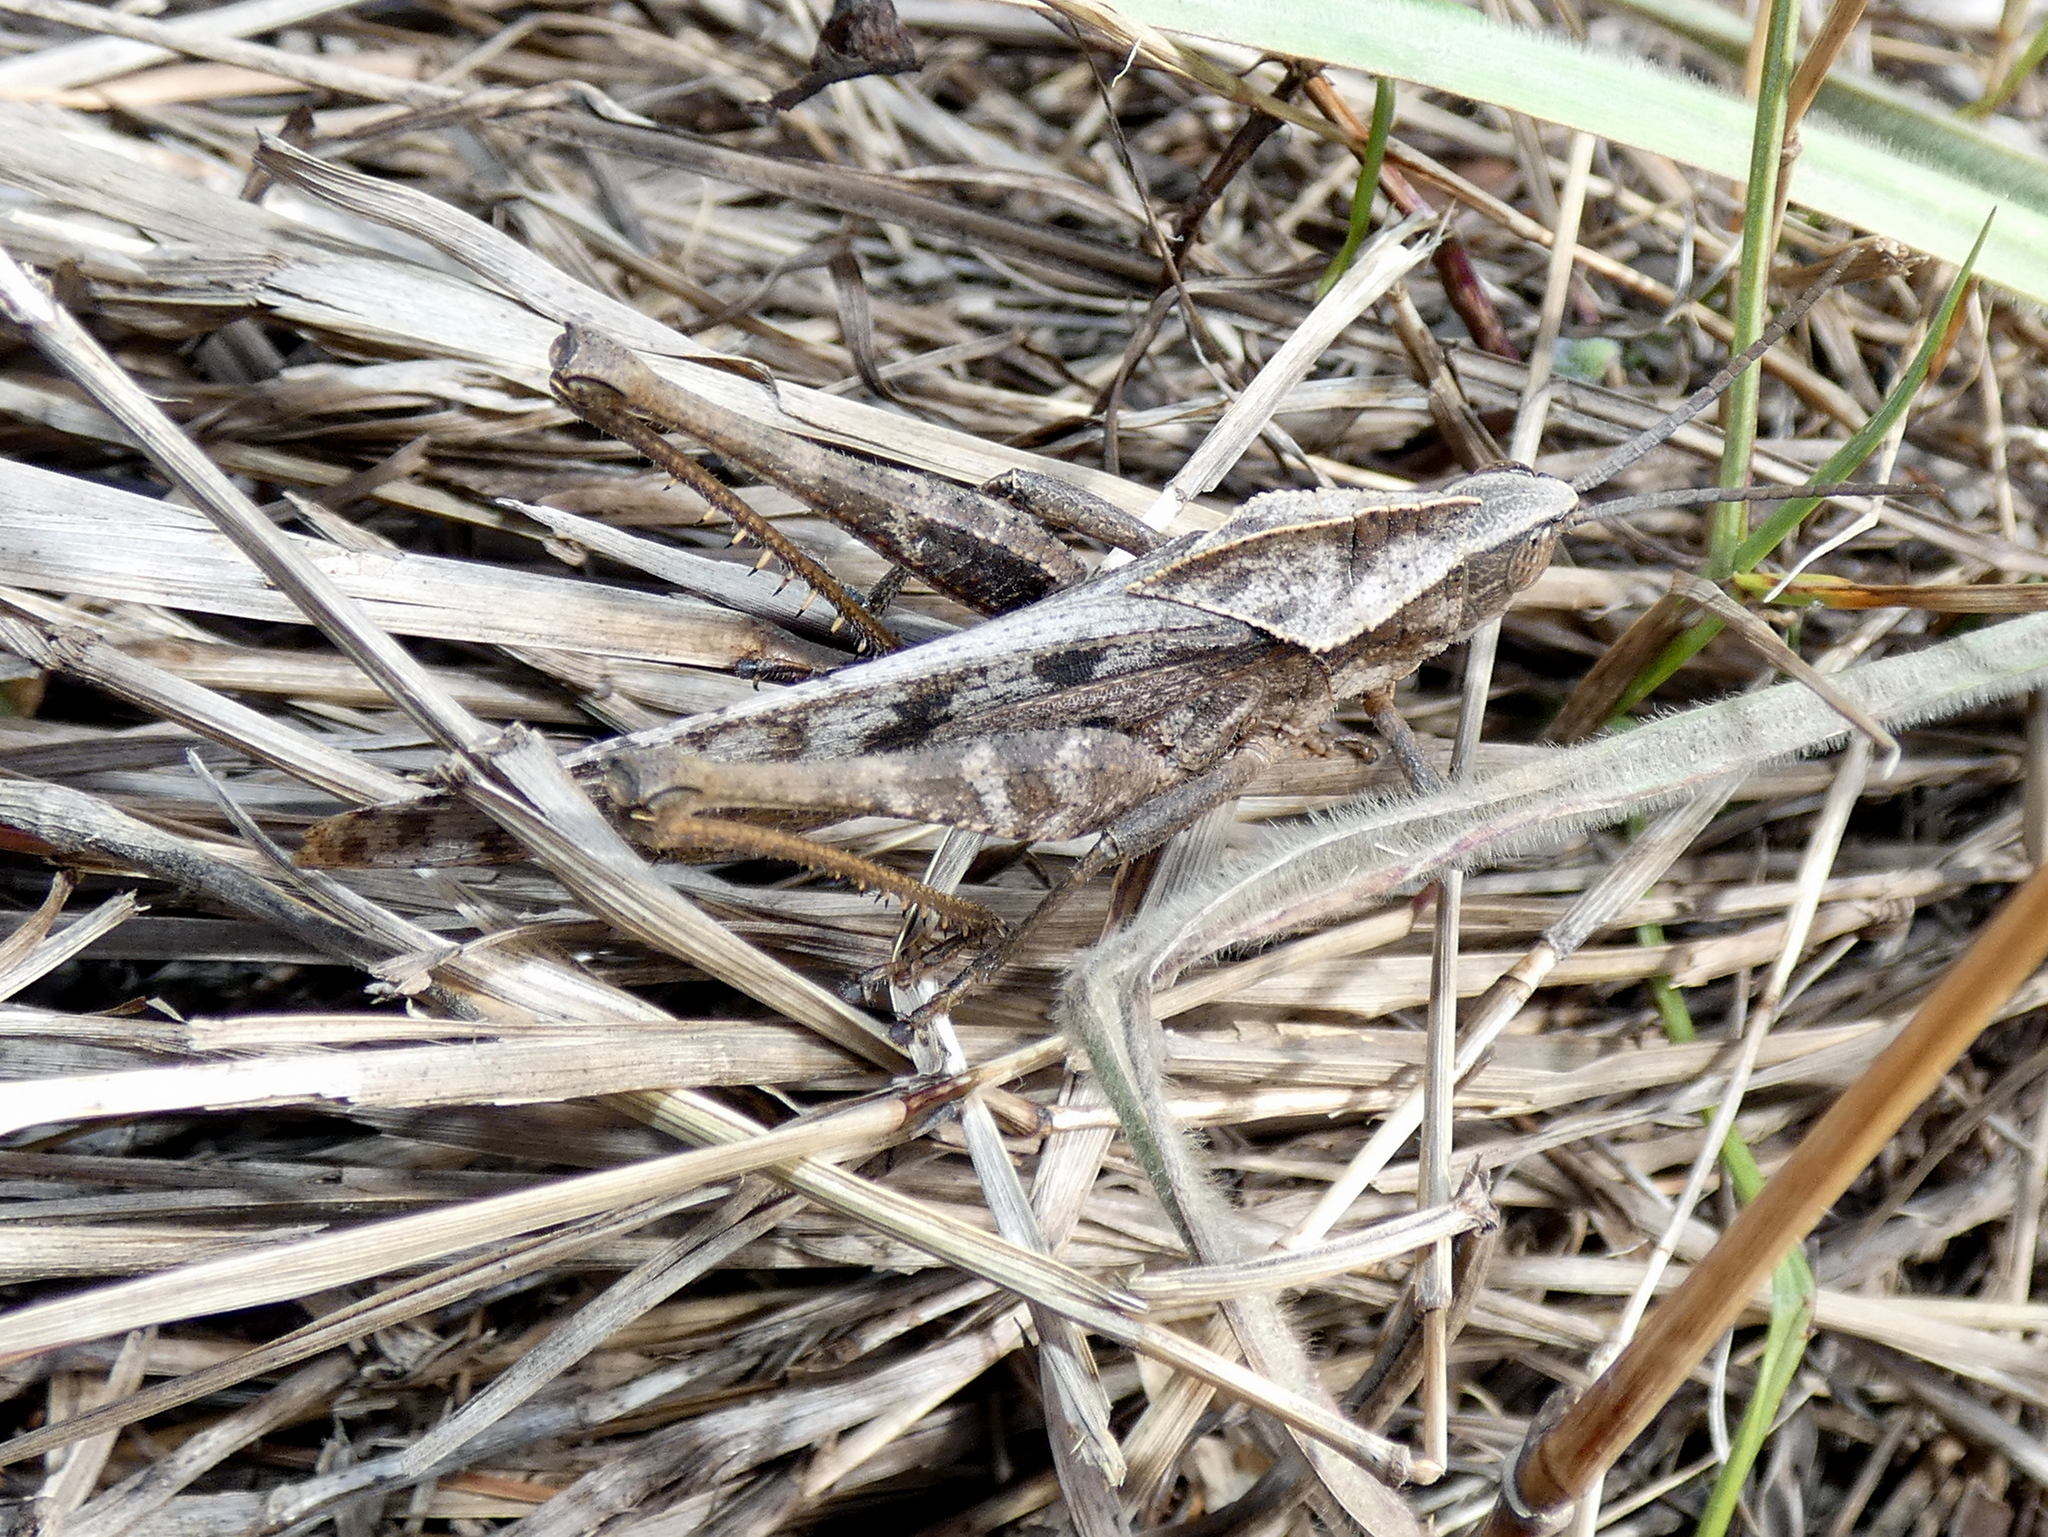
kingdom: Animalia
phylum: Arthropoda
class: Insecta
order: Orthoptera
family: Romaleidae
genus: Xyleus
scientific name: Xyleus discoideus
